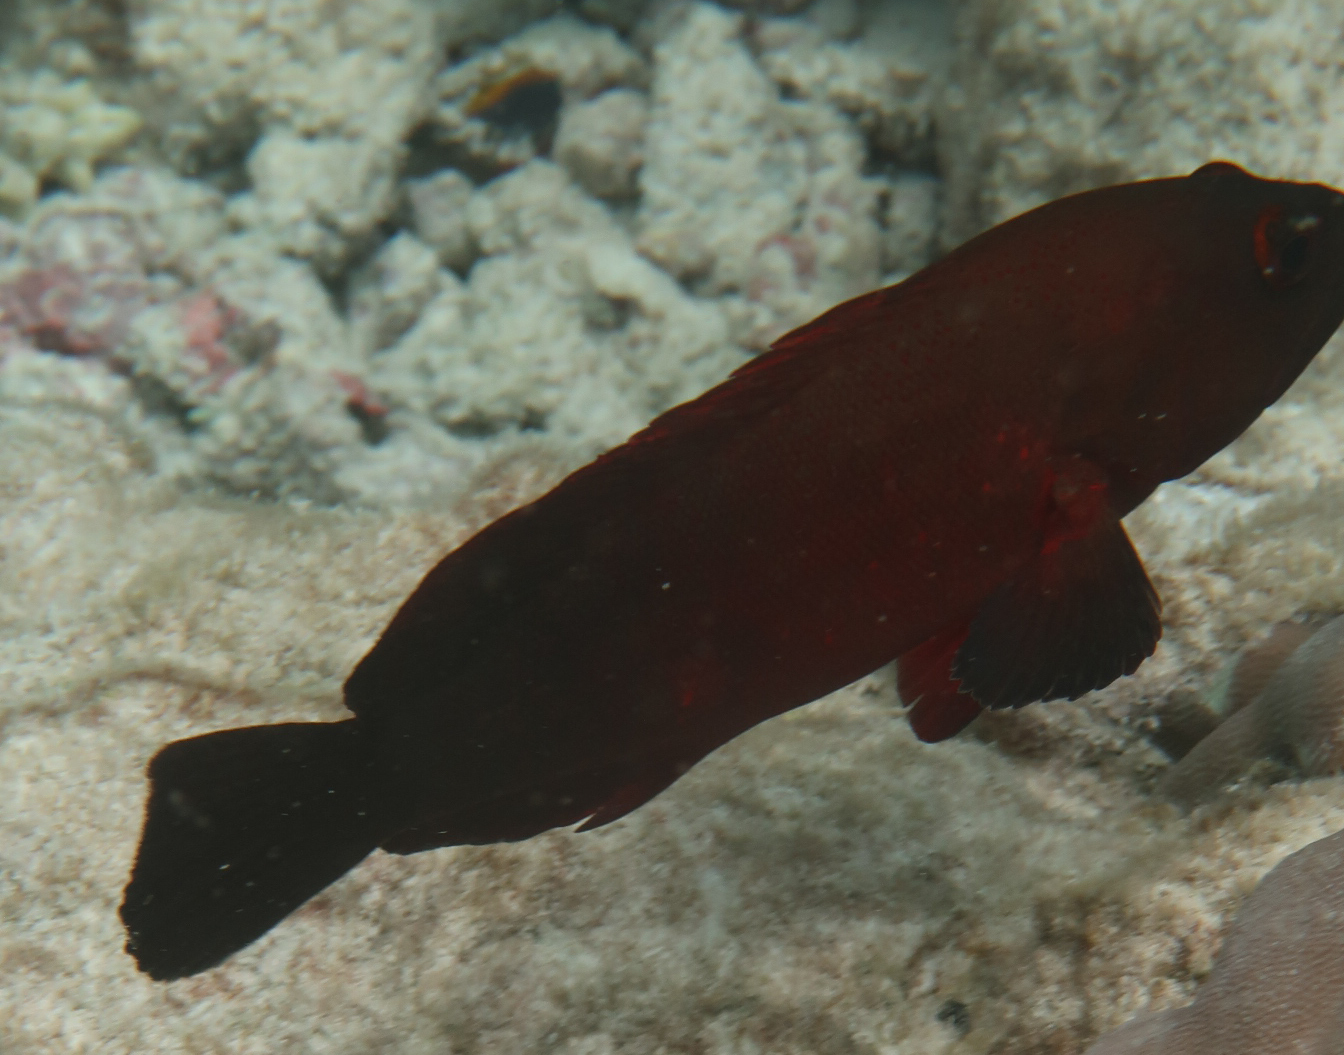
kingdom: Animalia
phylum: Chordata
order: Perciformes
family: Serranidae
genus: Cephalopholis
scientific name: Cephalopholis nigripinnis
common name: Duskyfin hind
